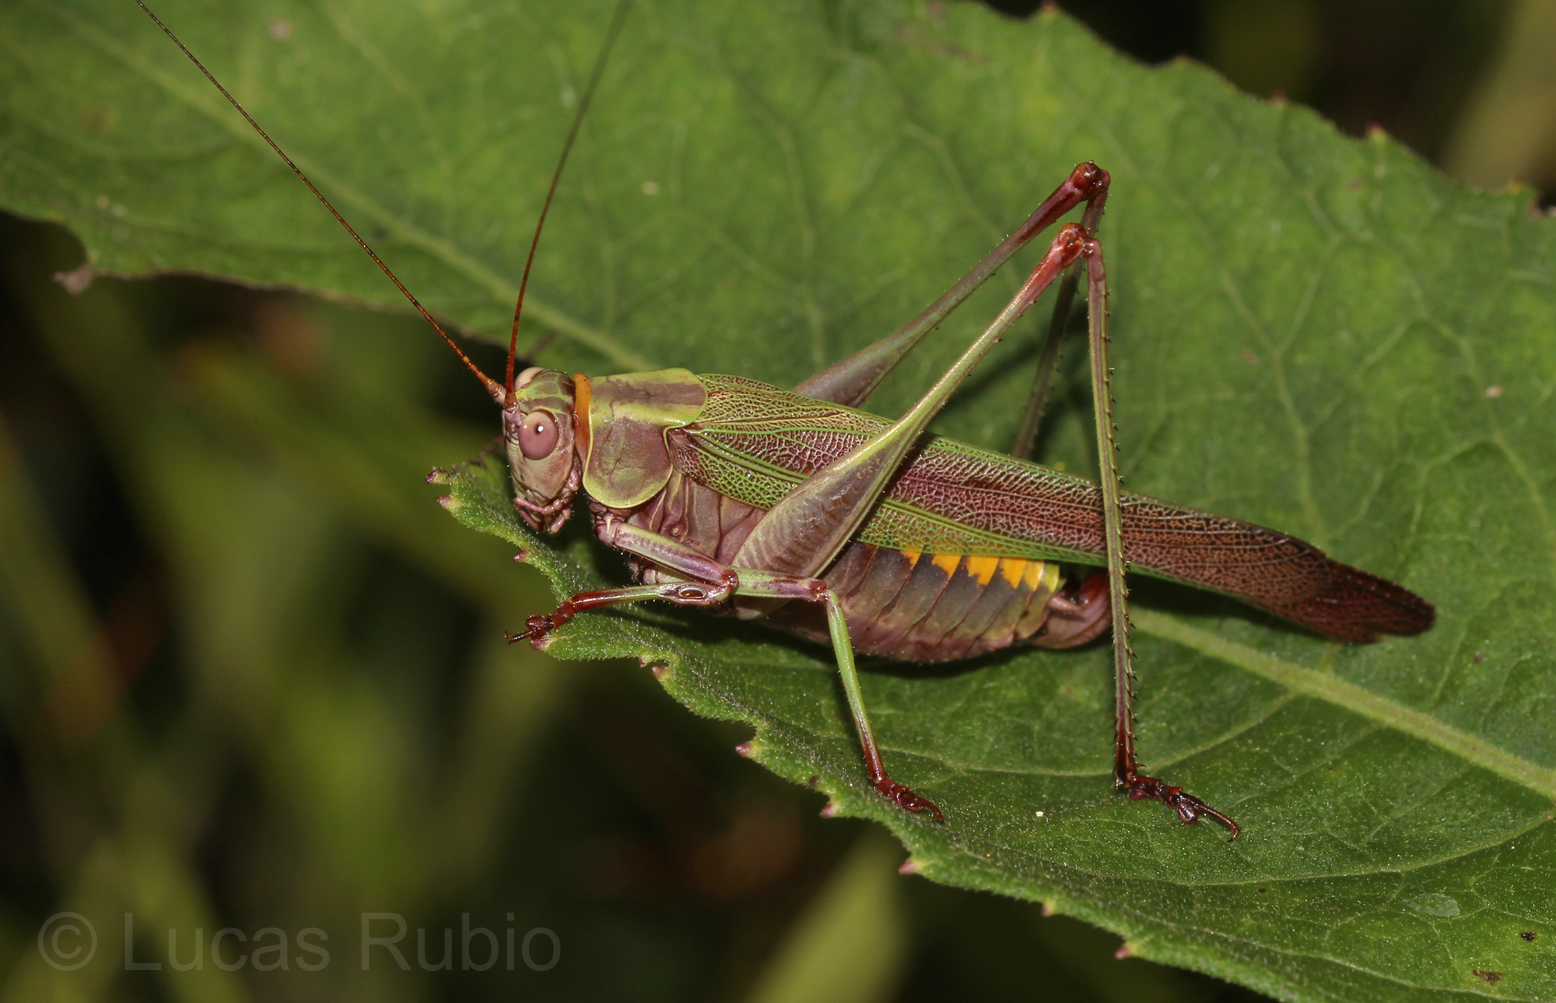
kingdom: Animalia
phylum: Arthropoda
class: Insecta
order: Orthoptera
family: Tettigoniidae
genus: Enthephippion
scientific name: Enthephippion olivaceum
